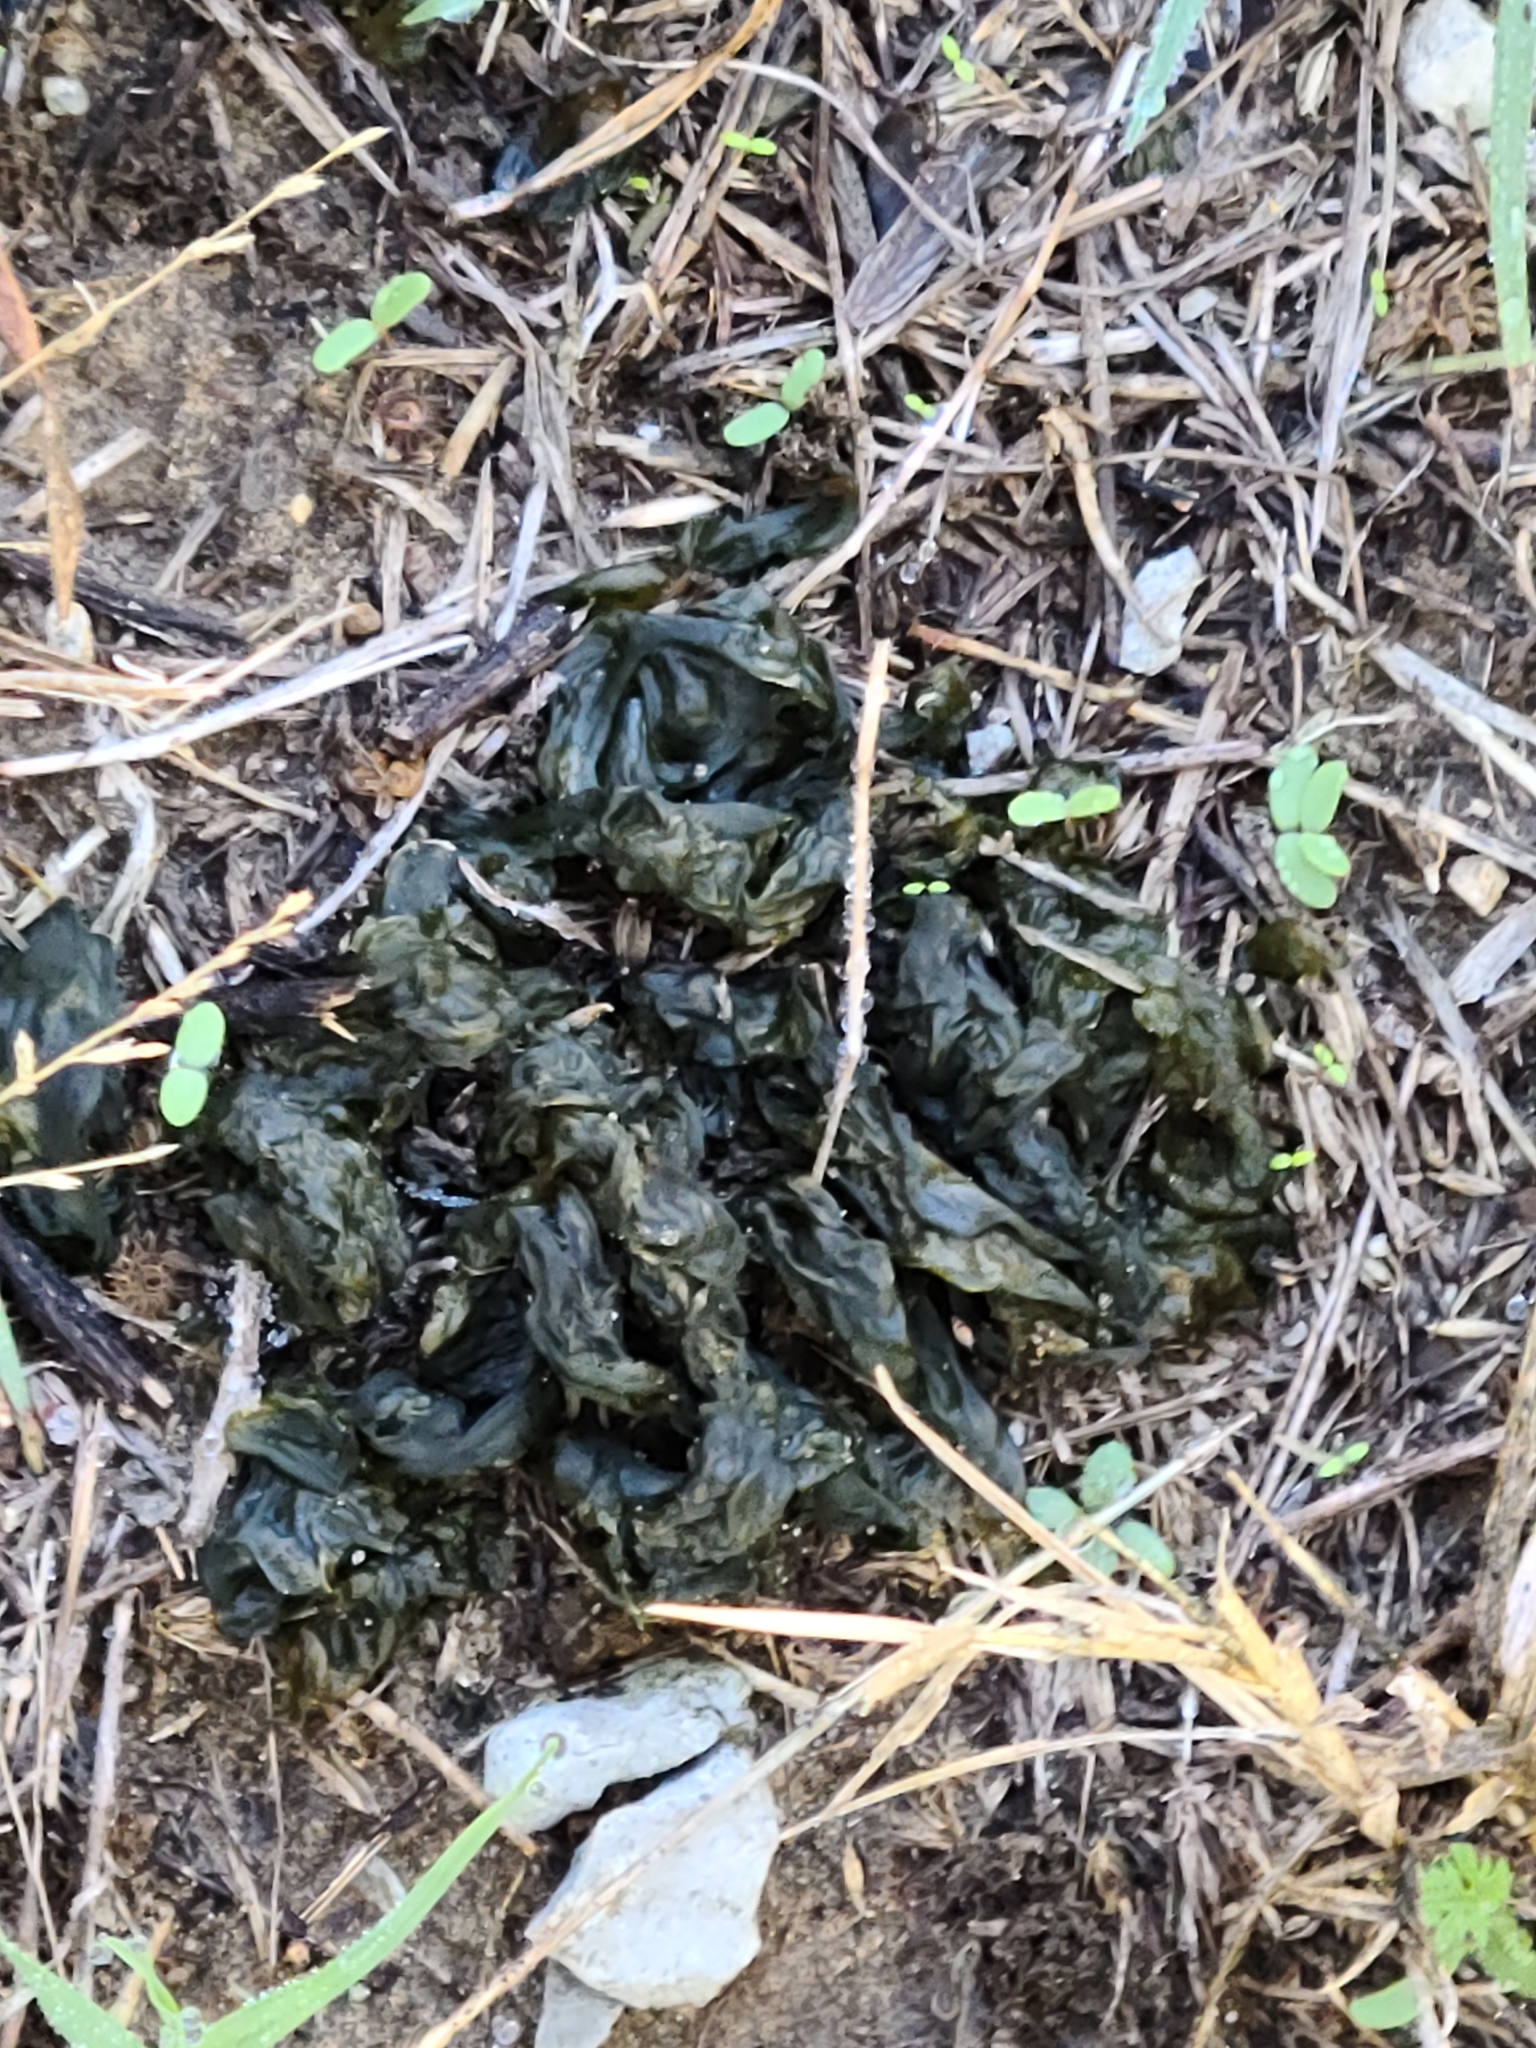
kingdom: Bacteria
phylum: Cyanobacteria
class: Cyanobacteriia
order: Cyanobacteriales
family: Nostocaceae
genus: Nostoc
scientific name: Nostoc commune
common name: Star jelly
